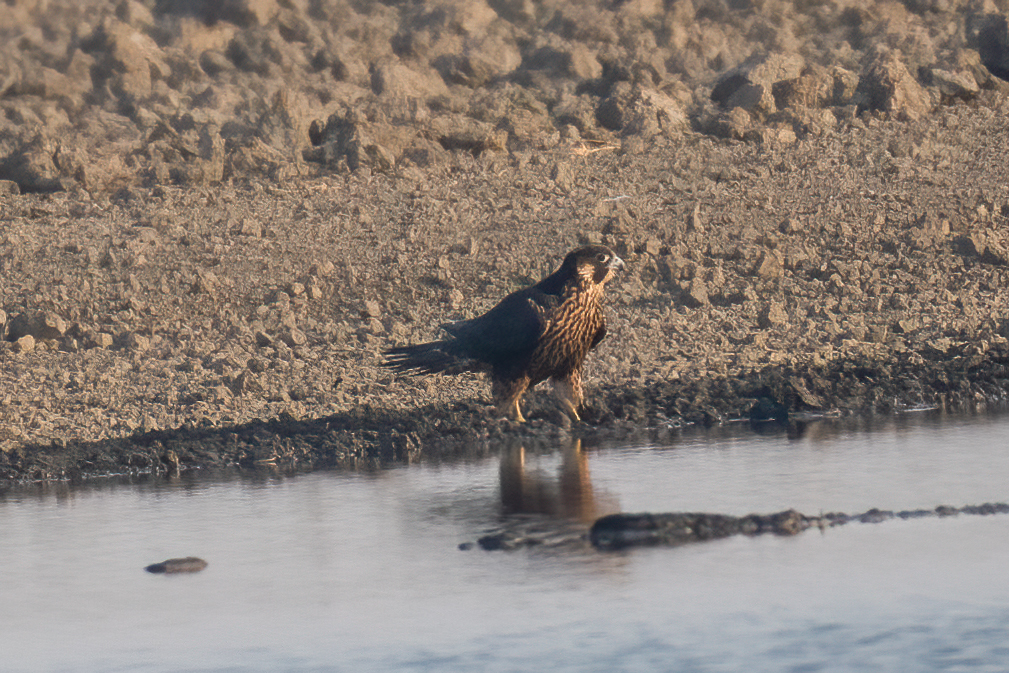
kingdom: Animalia
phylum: Chordata
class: Aves
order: Falconiformes
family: Falconidae
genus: Falco
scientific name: Falco peregrinus
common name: Peregrine falcon
